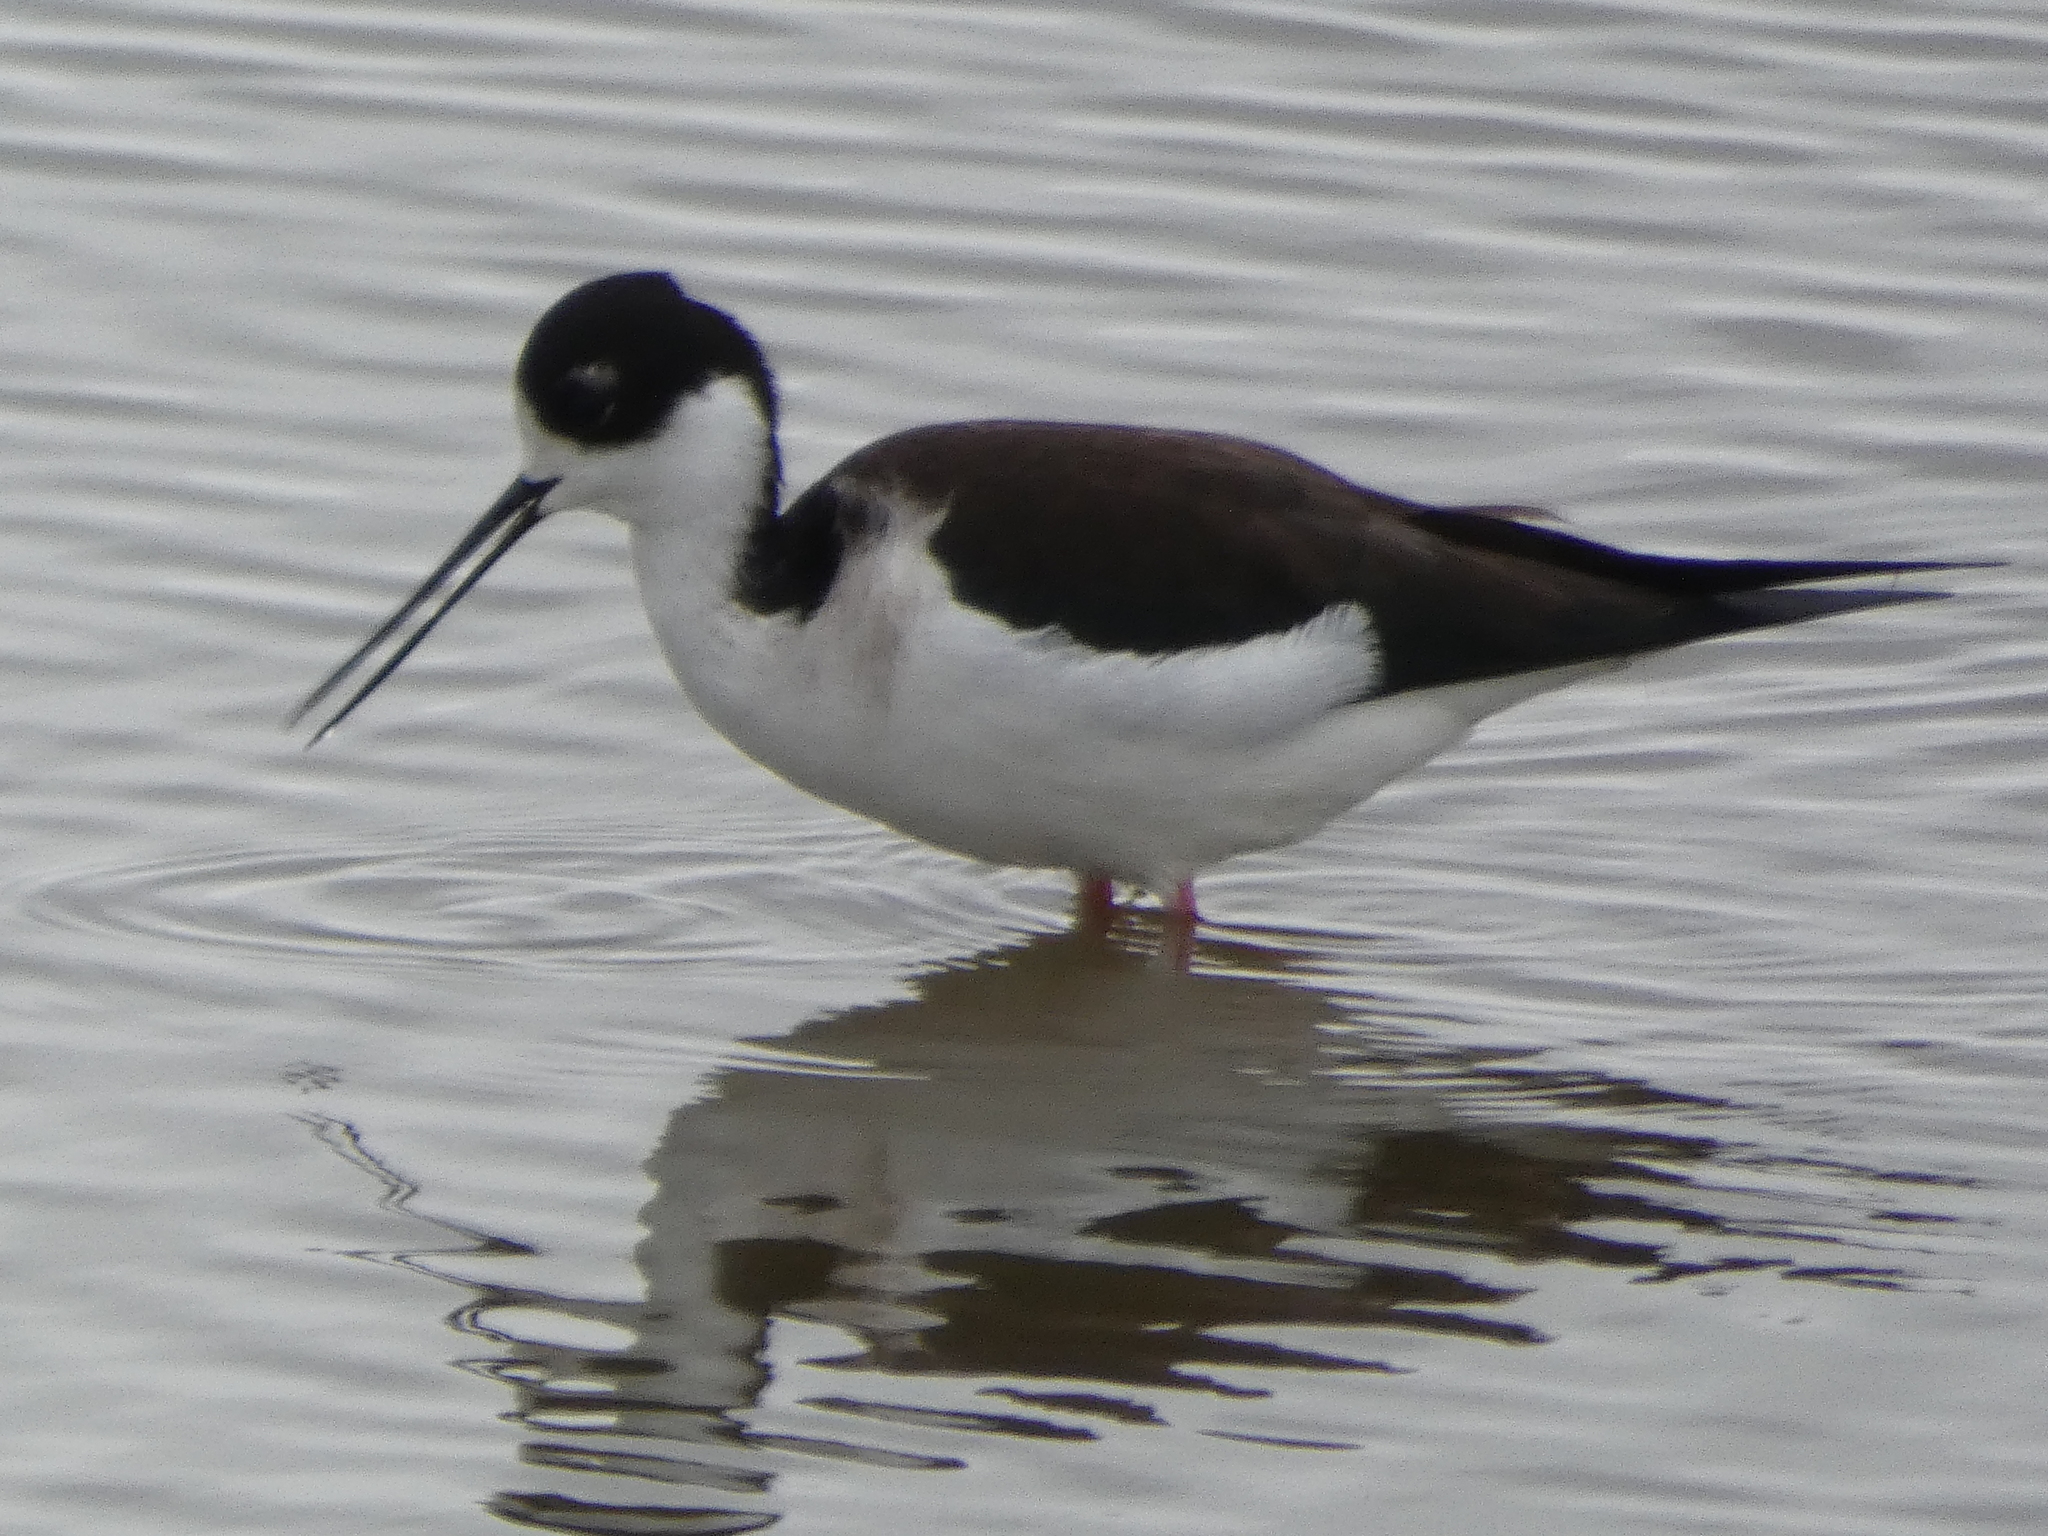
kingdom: Animalia
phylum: Chordata
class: Aves
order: Charadriiformes
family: Recurvirostridae
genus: Himantopus
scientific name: Himantopus mexicanus
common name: Black-necked stilt
